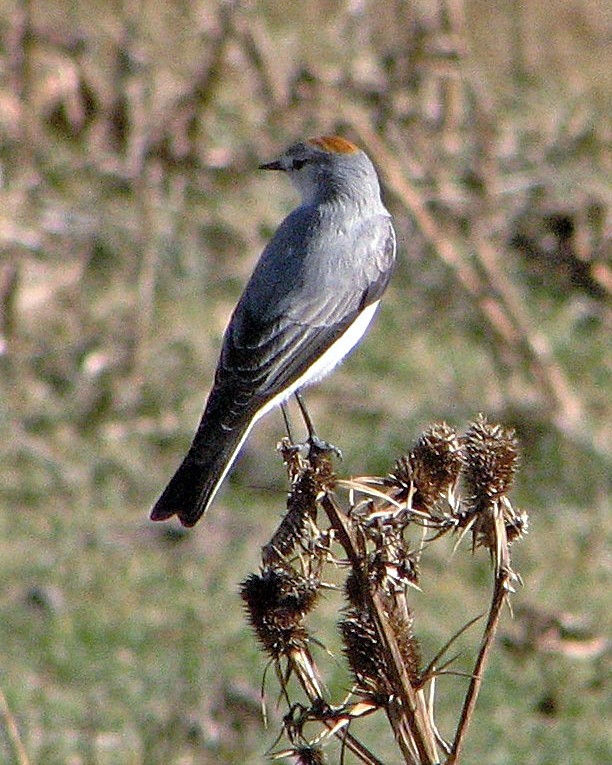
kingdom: Animalia
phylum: Chordata
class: Aves
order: Passeriformes
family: Tyrannidae
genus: Muscisaxicola
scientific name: Muscisaxicola rufivertex
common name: Rufous-naped ground tyrant
